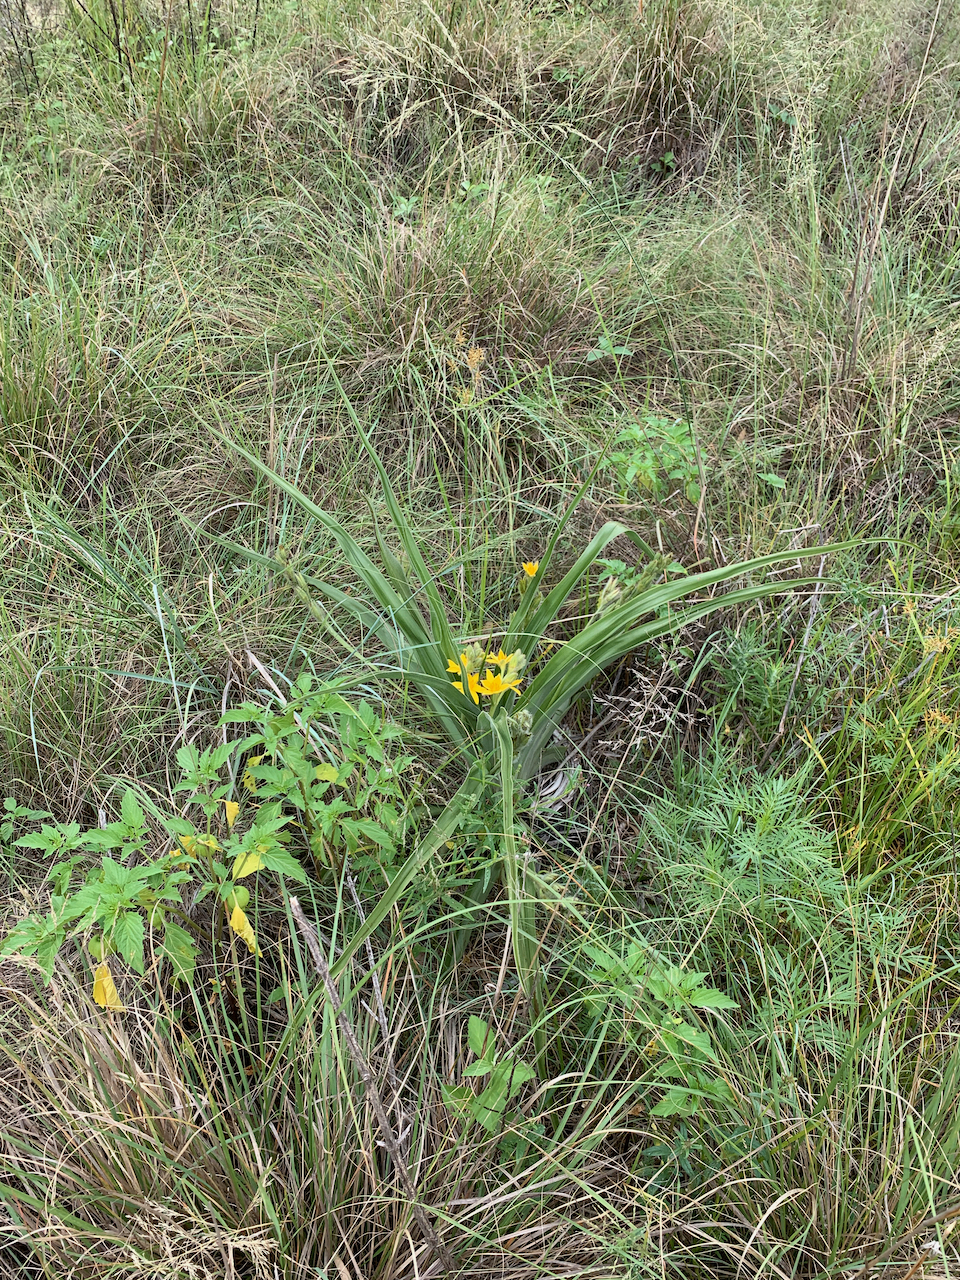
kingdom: Plantae
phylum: Tracheophyta
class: Liliopsida
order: Asparagales
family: Hypoxidaceae
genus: Hypoxis
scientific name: Hypoxis hemerocallidea
